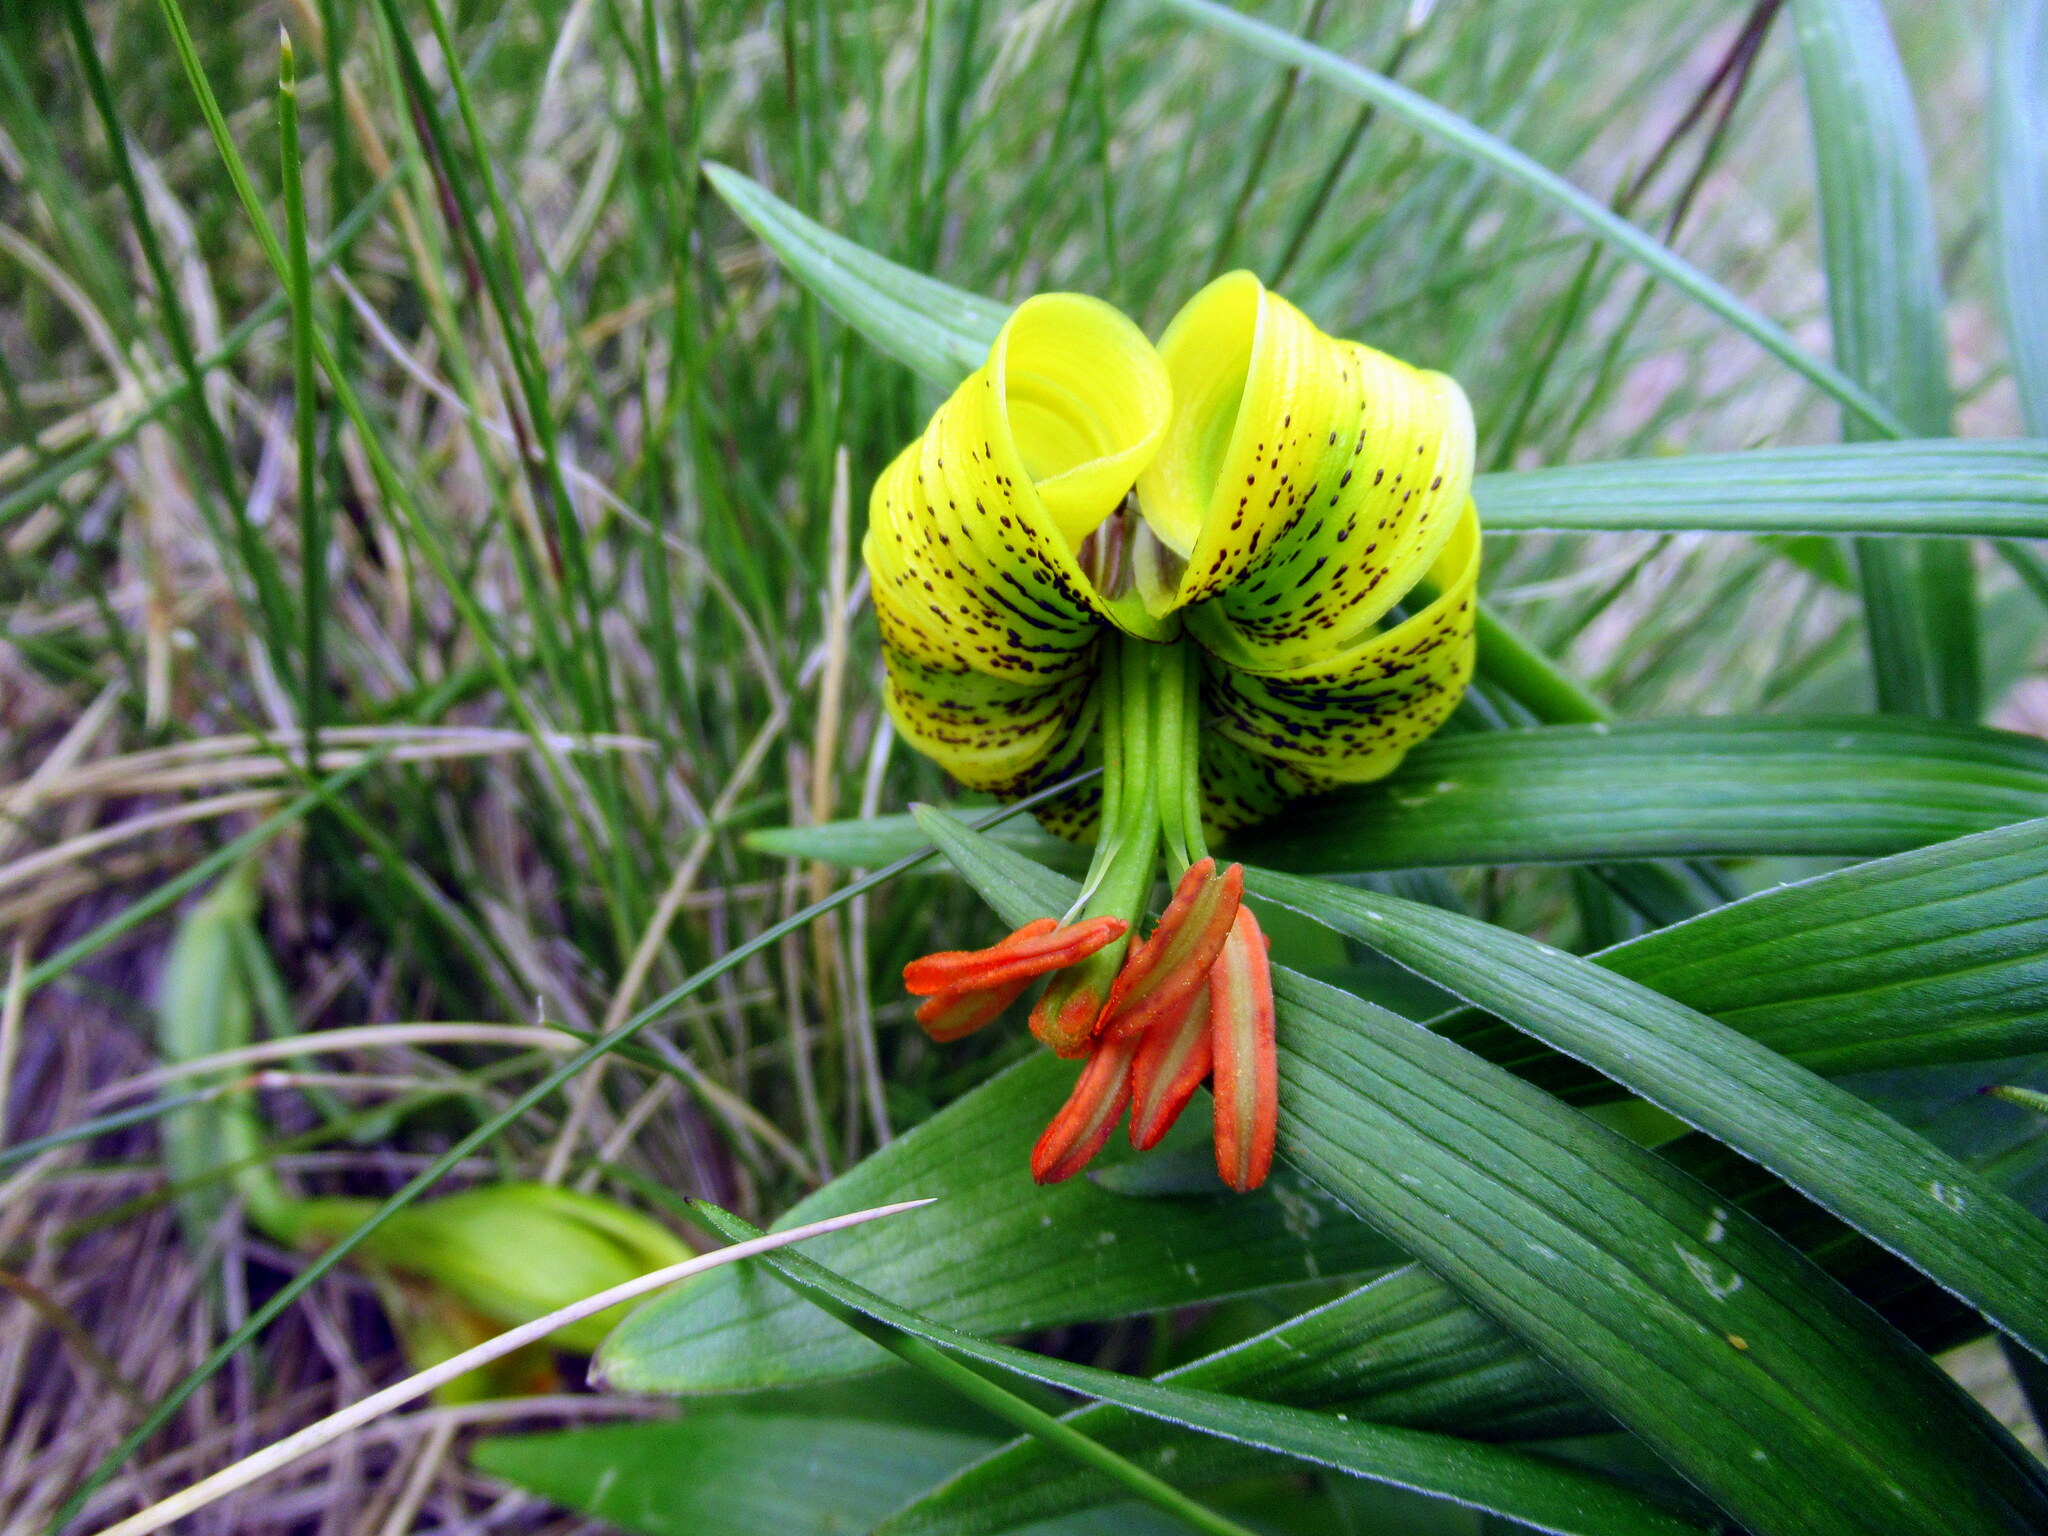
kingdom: Plantae
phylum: Tracheophyta
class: Liliopsida
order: Liliales
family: Liliaceae
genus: Lilium
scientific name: Lilium pyrenaicum
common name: Pyrenean lily
